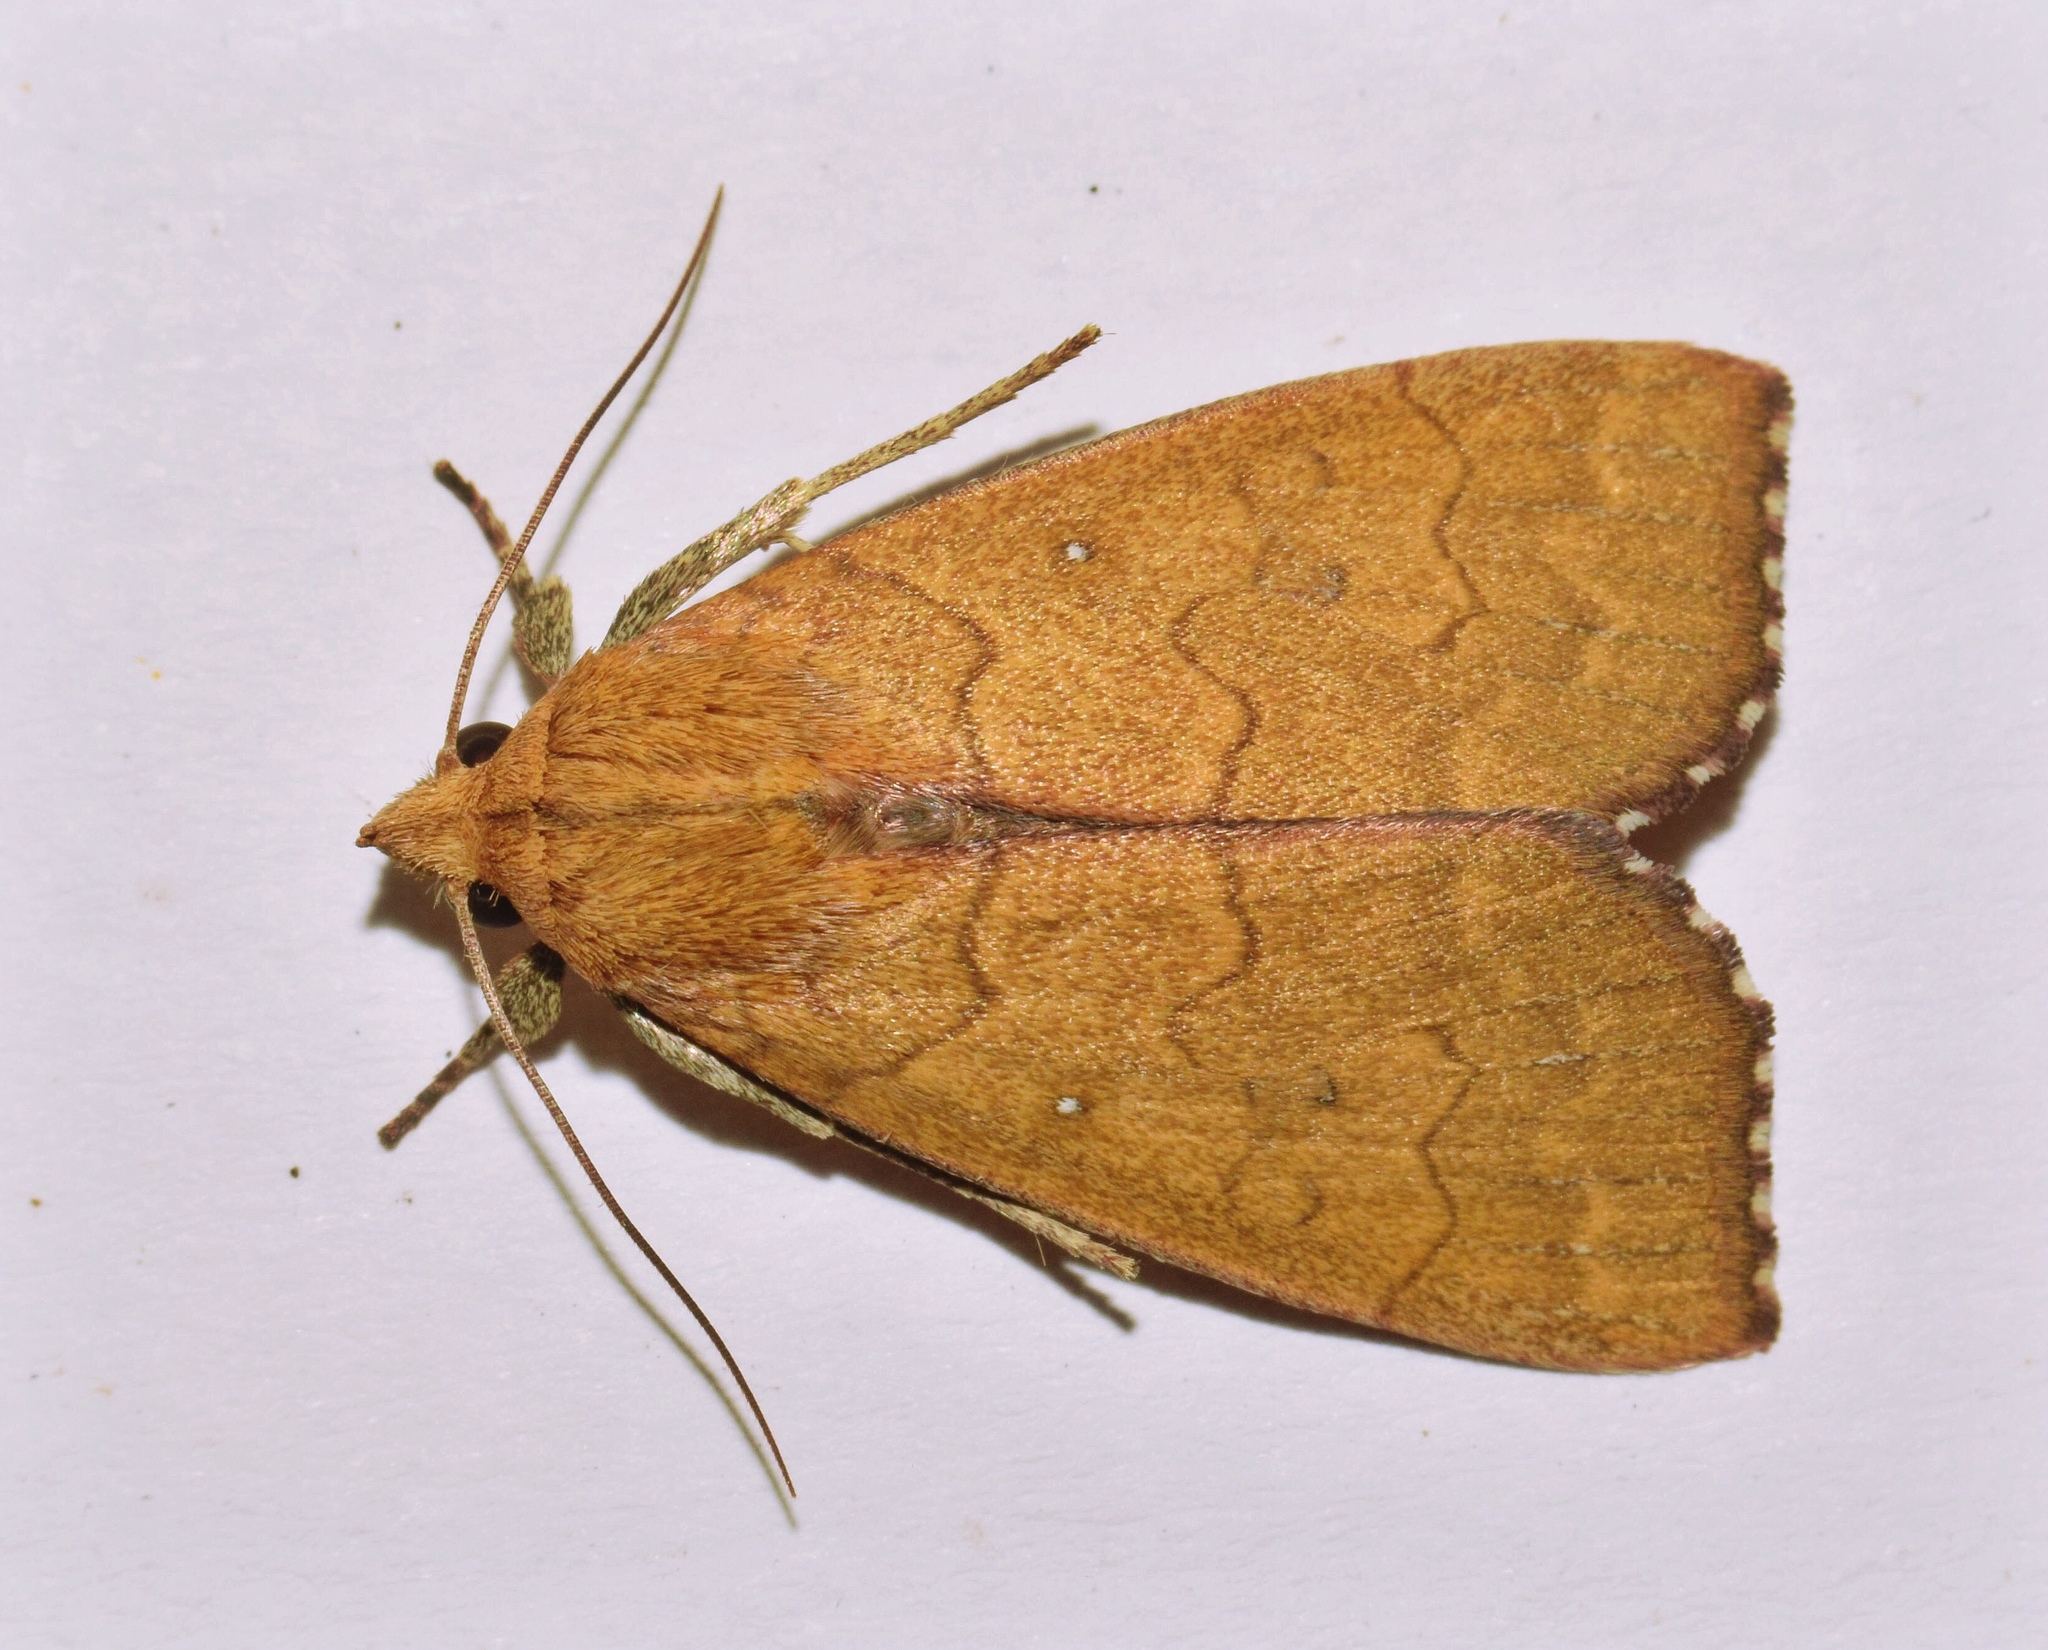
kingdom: Animalia
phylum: Arthropoda
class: Insecta
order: Lepidoptera
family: Erebidae
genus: Anomis
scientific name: Anomis luperca
